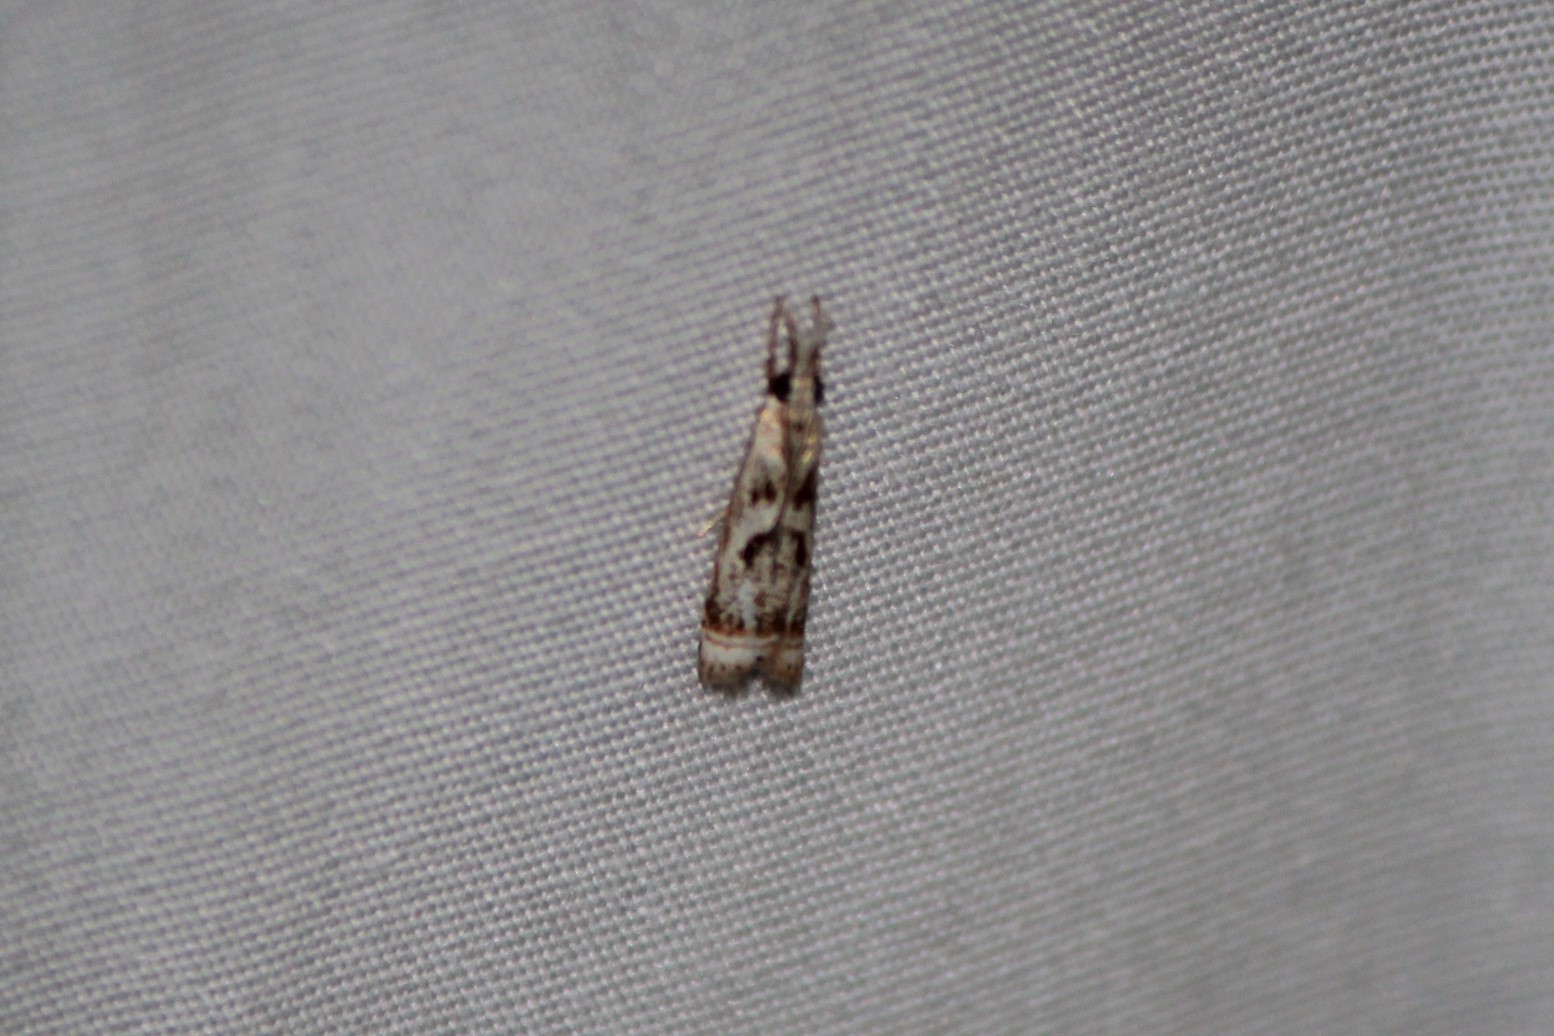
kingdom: Animalia
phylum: Arthropoda
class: Insecta
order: Lepidoptera
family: Crambidae
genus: Microcrambus
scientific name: Microcrambus elegans
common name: Elegant grass-veneer
